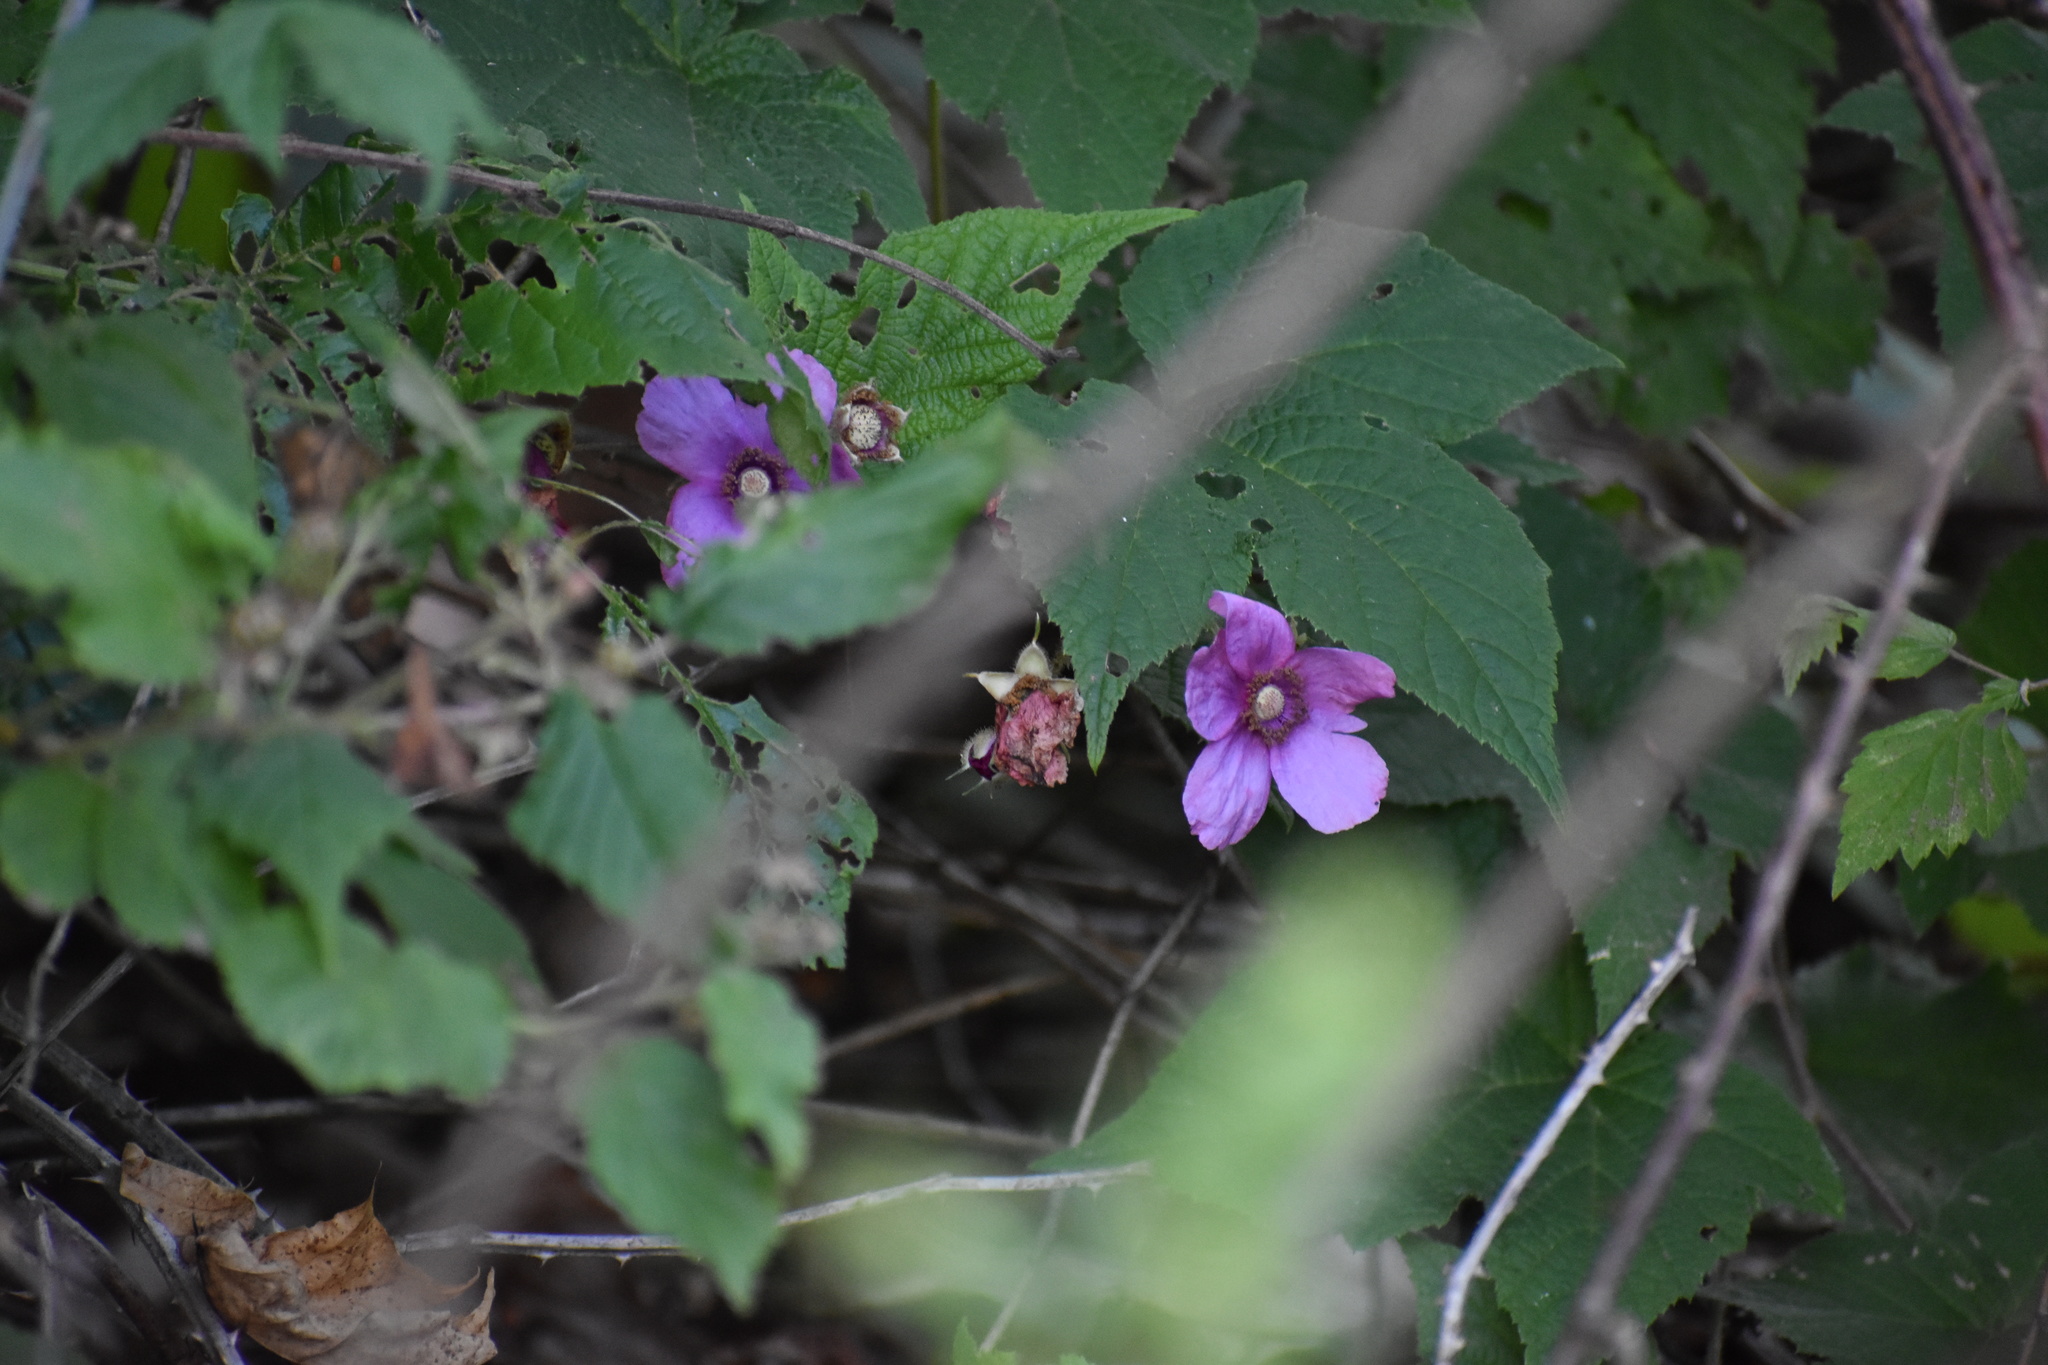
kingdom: Plantae
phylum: Tracheophyta
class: Magnoliopsida
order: Rosales
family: Rosaceae
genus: Rubus
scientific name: Rubus odoratus
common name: Purple-flowered raspberry
